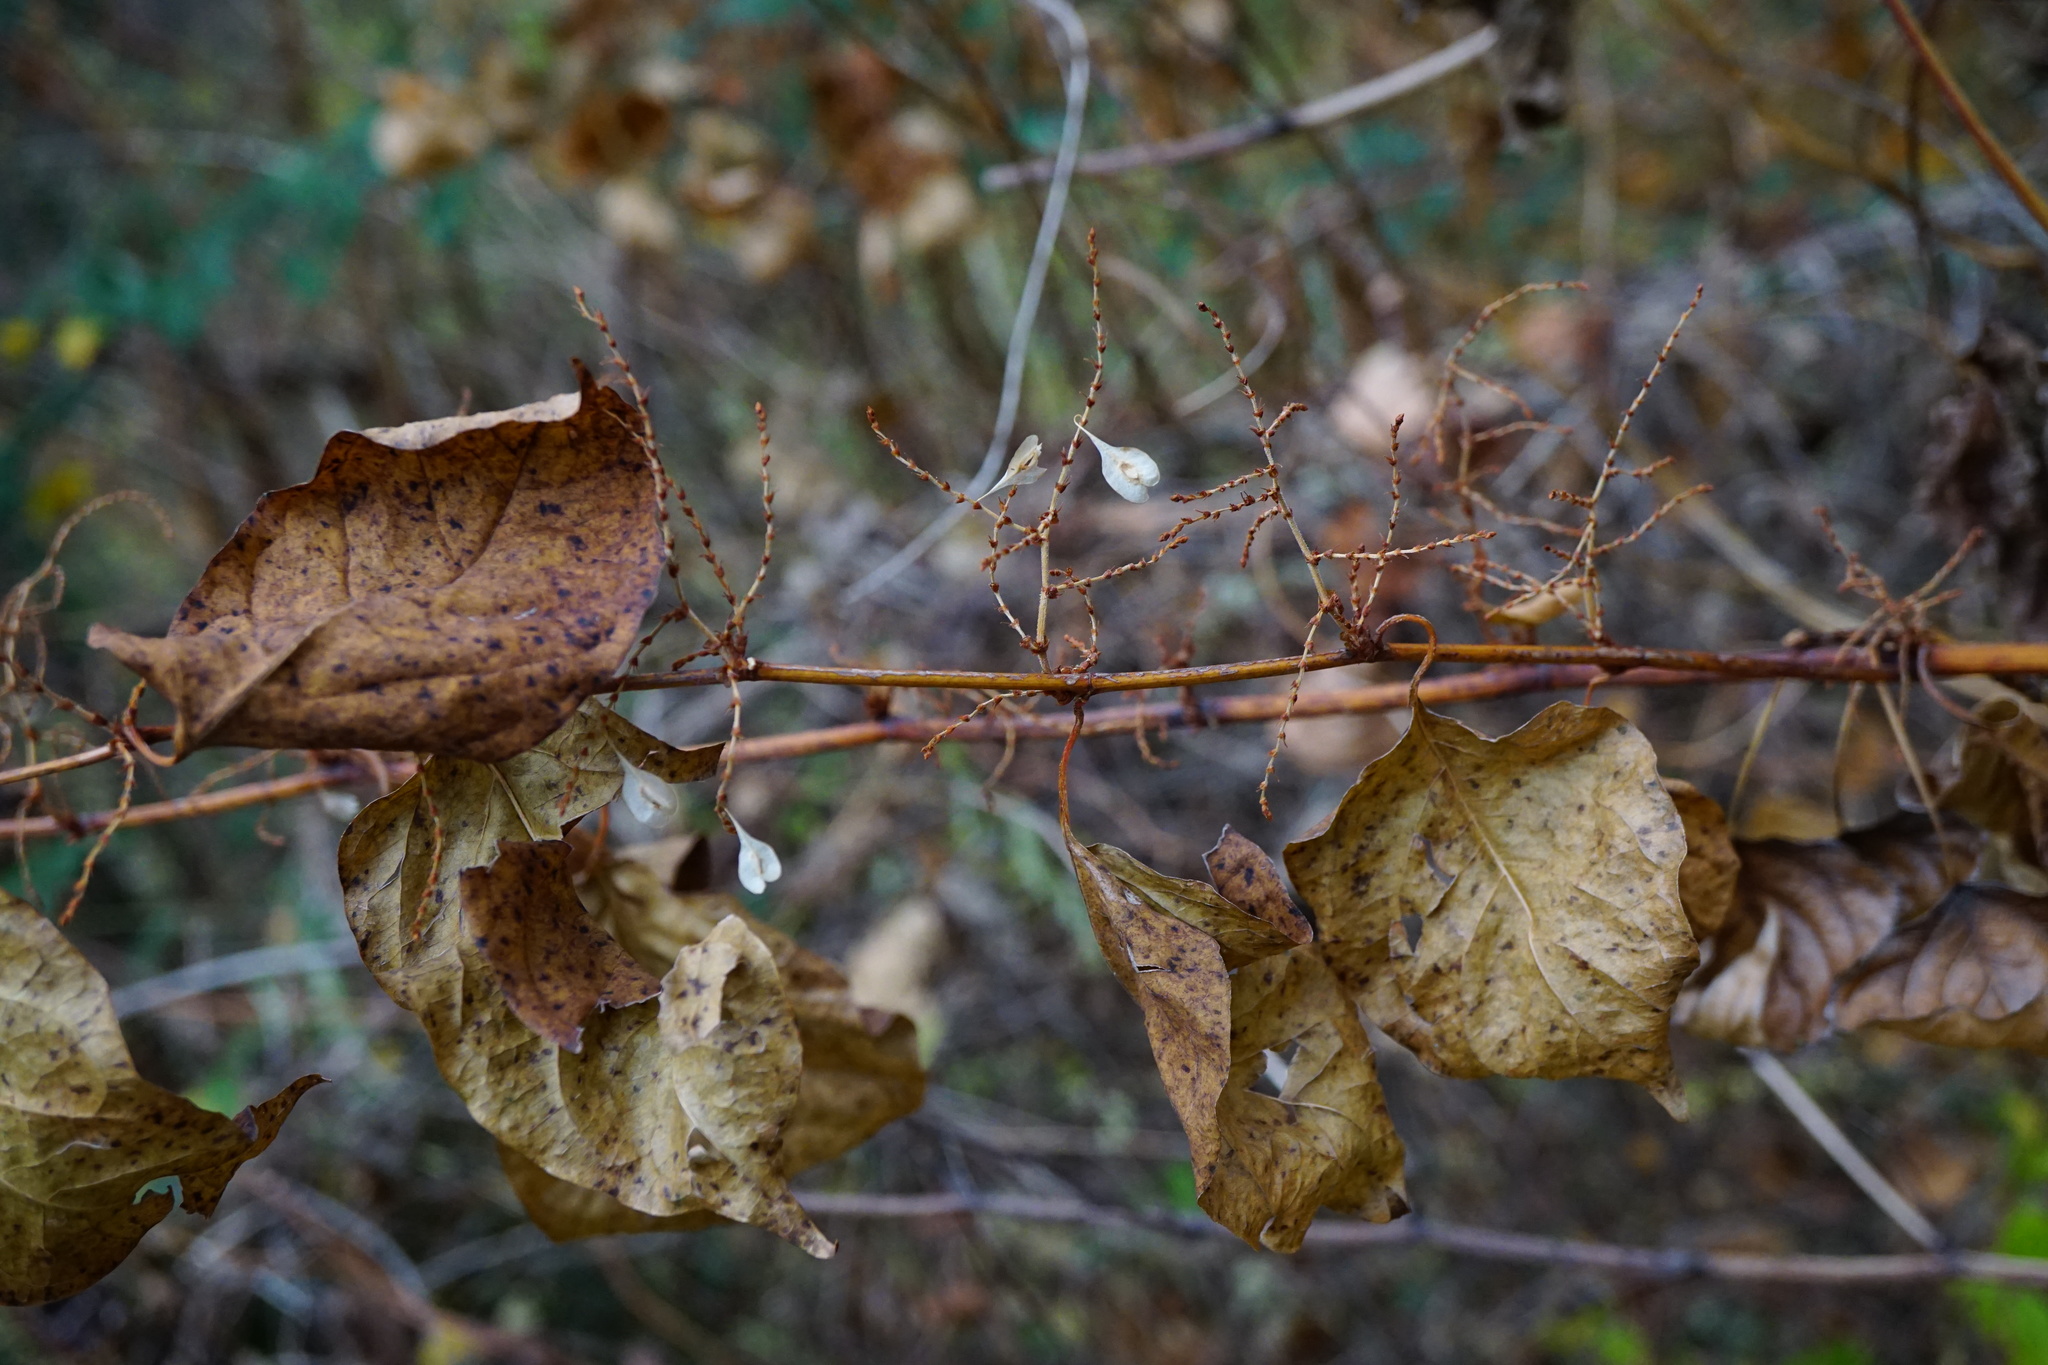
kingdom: Plantae
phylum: Tracheophyta
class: Magnoliopsida
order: Caryophyllales
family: Polygonaceae
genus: Reynoutria
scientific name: Reynoutria japonica
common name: Japanese knotweed
